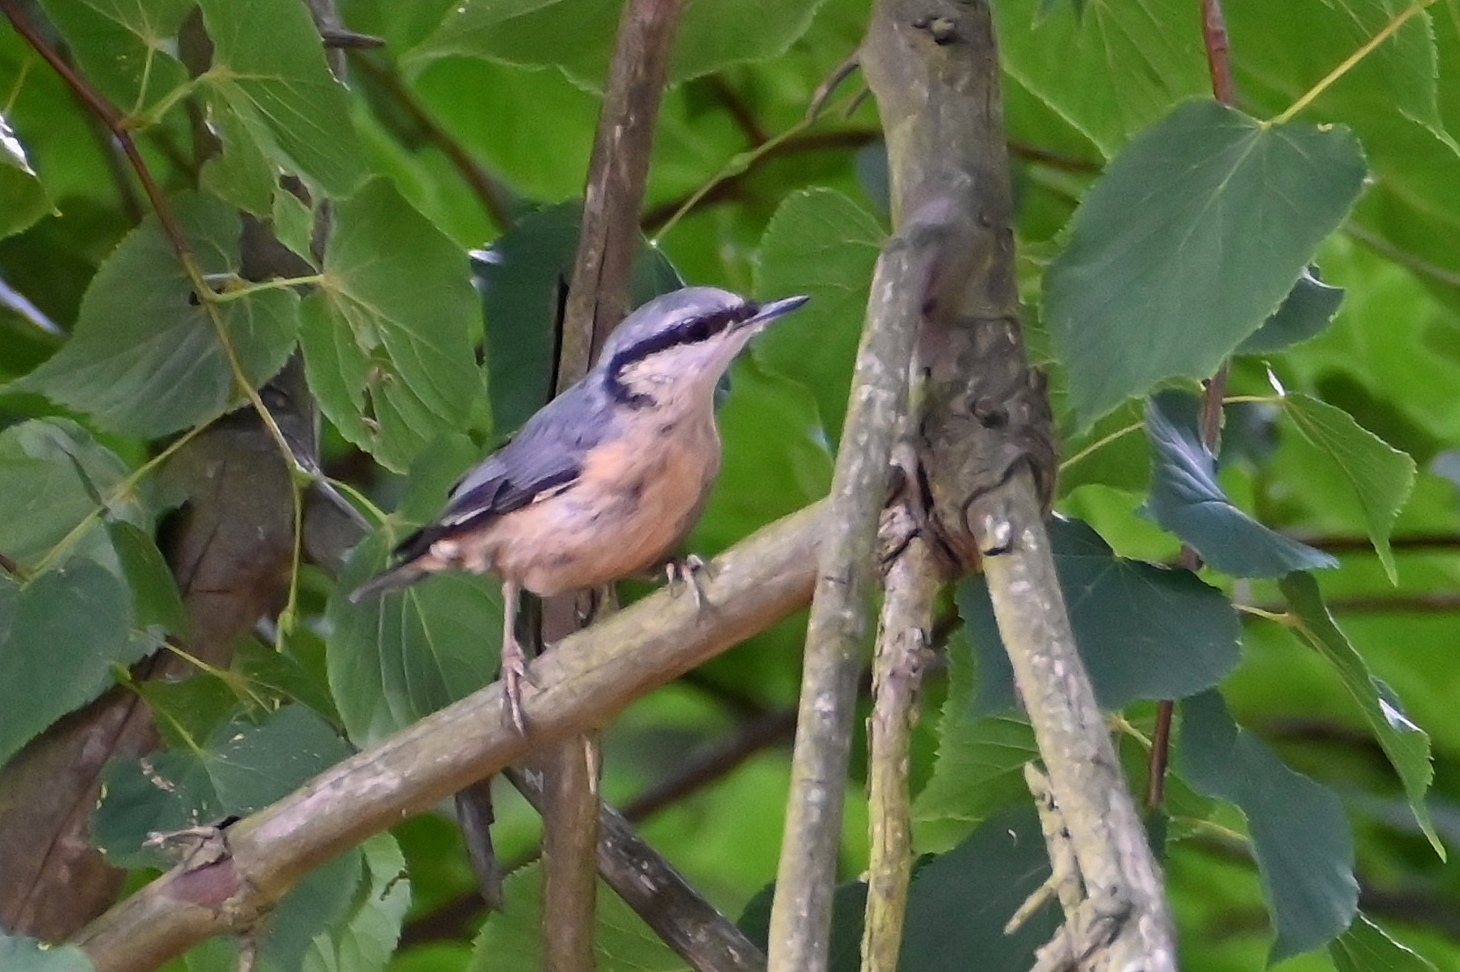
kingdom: Animalia
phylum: Chordata
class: Aves
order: Passeriformes
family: Sittidae
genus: Sitta
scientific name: Sitta europaea
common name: Eurasian nuthatch
